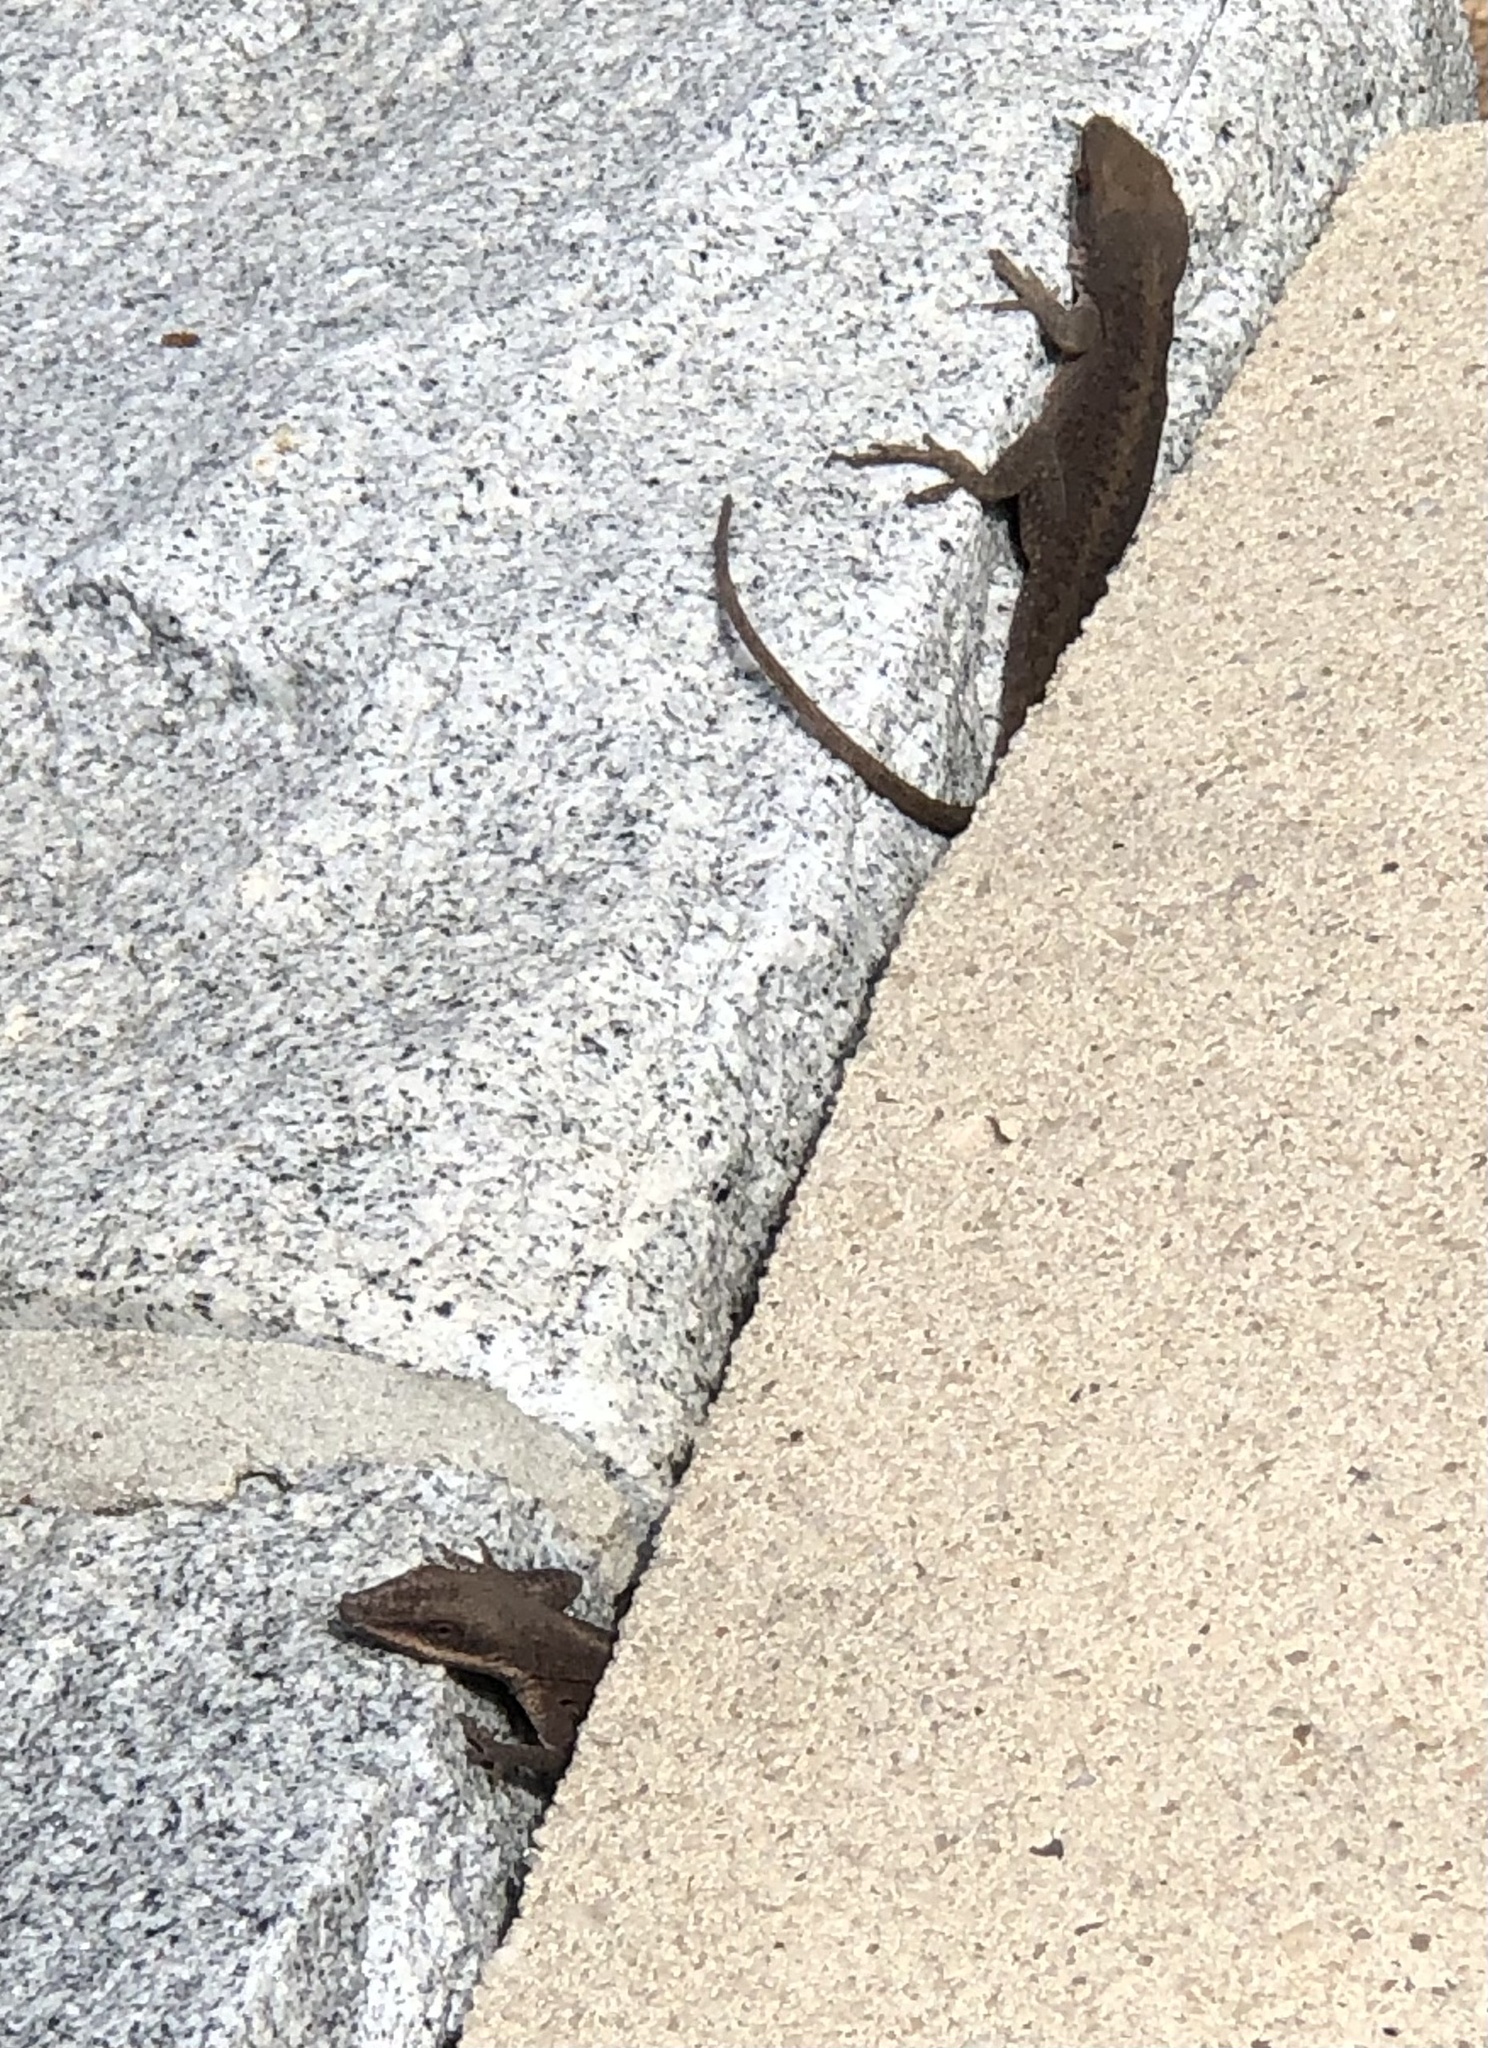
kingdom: Animalia
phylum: Chordata
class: Squamata
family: Dactyloidae
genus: Anolis
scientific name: Anolis carolinensis
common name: Green anole
